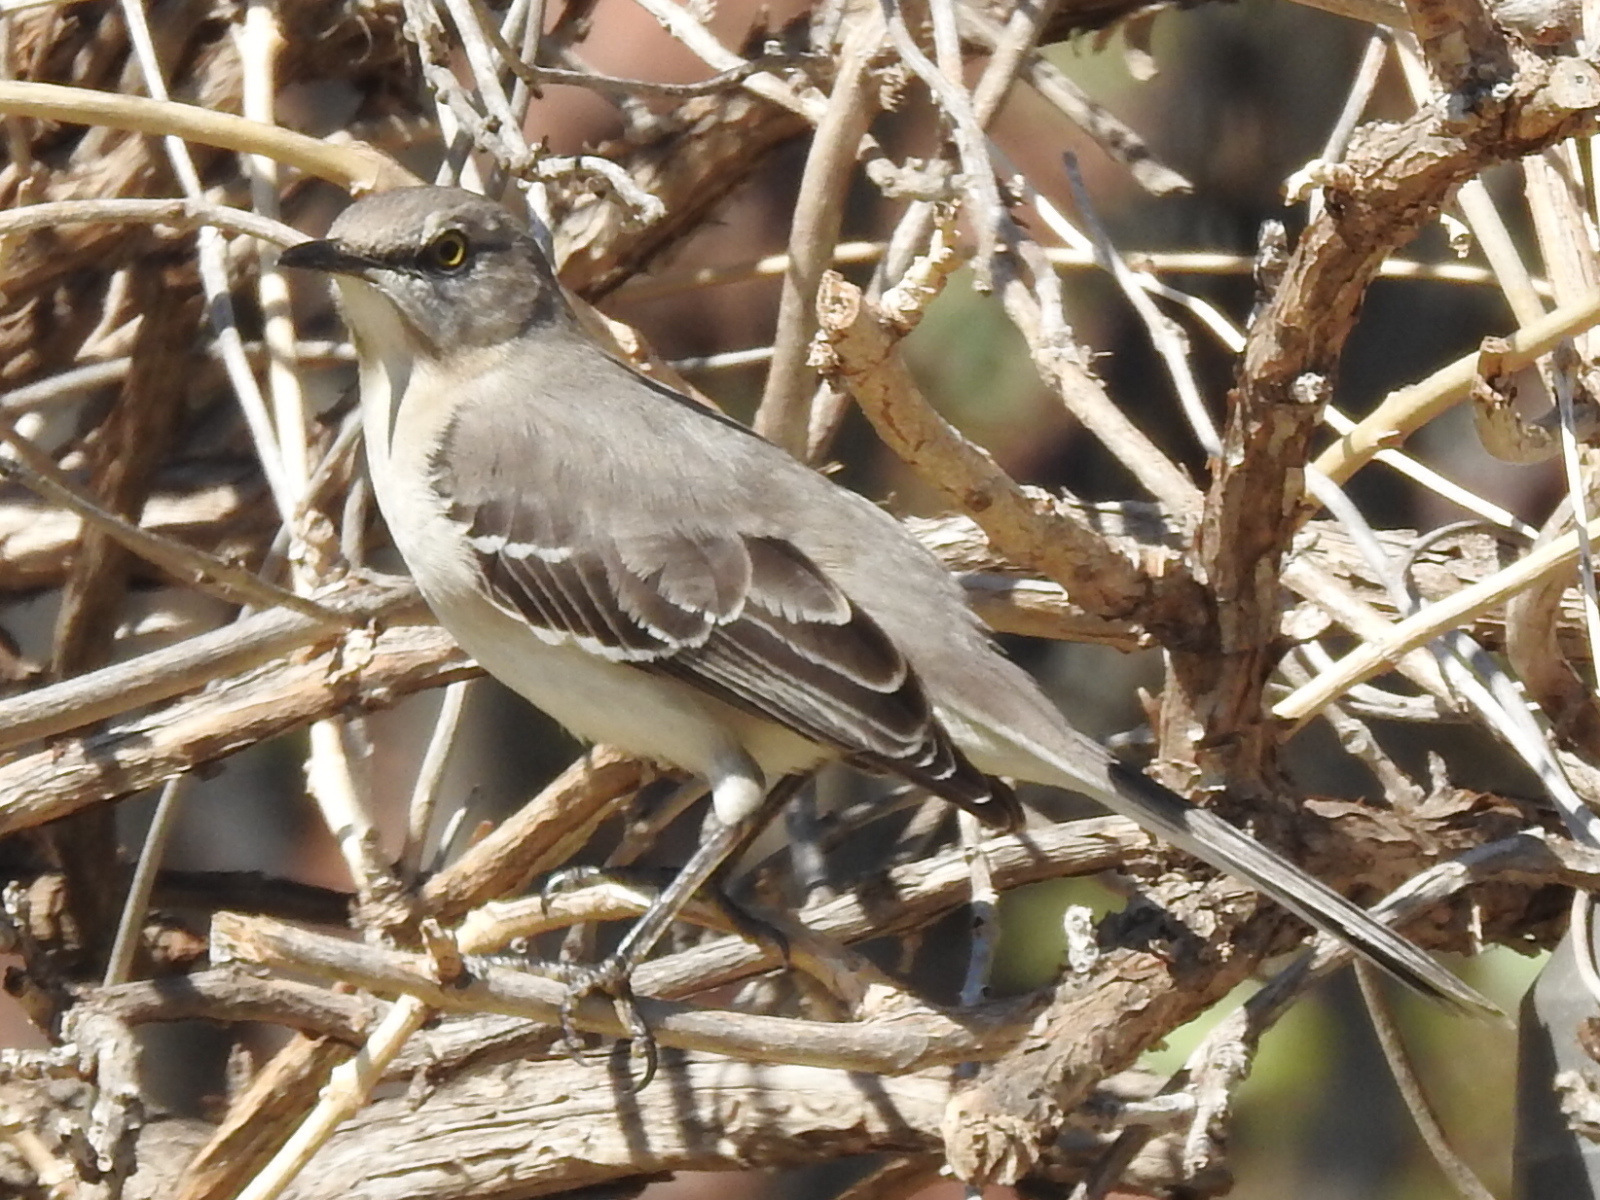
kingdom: Animalia
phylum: Chordata
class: Aves
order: Passeriformes
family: Mimidae
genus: Mimus
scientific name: Mimus polyglottos
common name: Northern mockingbird
